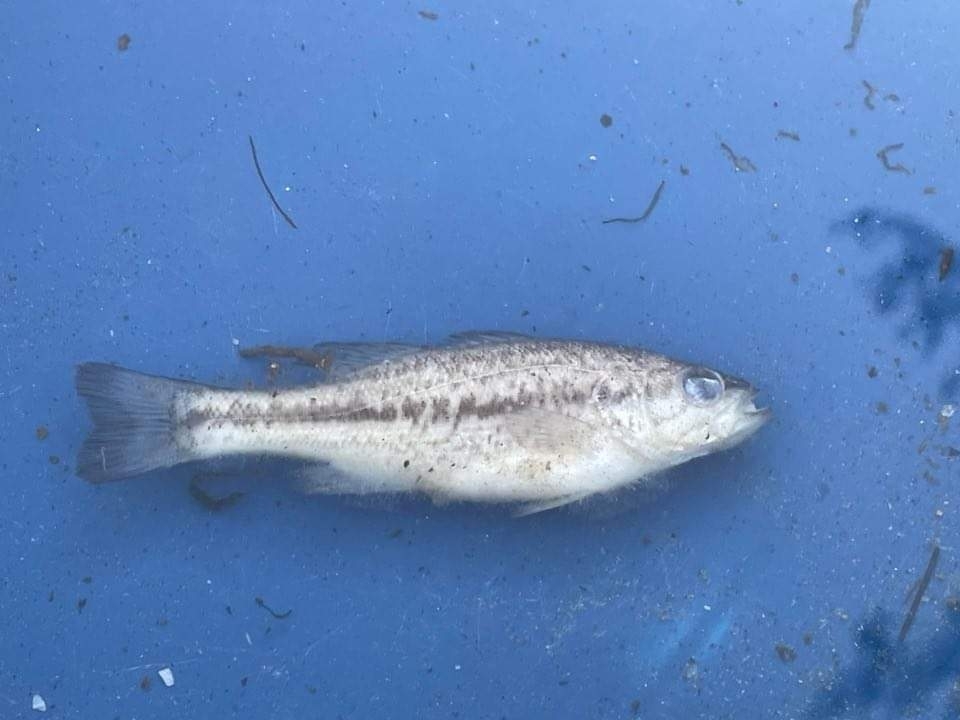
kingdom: Animalia
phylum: Chordata
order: Perciformes
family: Centrarchidae
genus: Micropterus
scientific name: Micropterus
